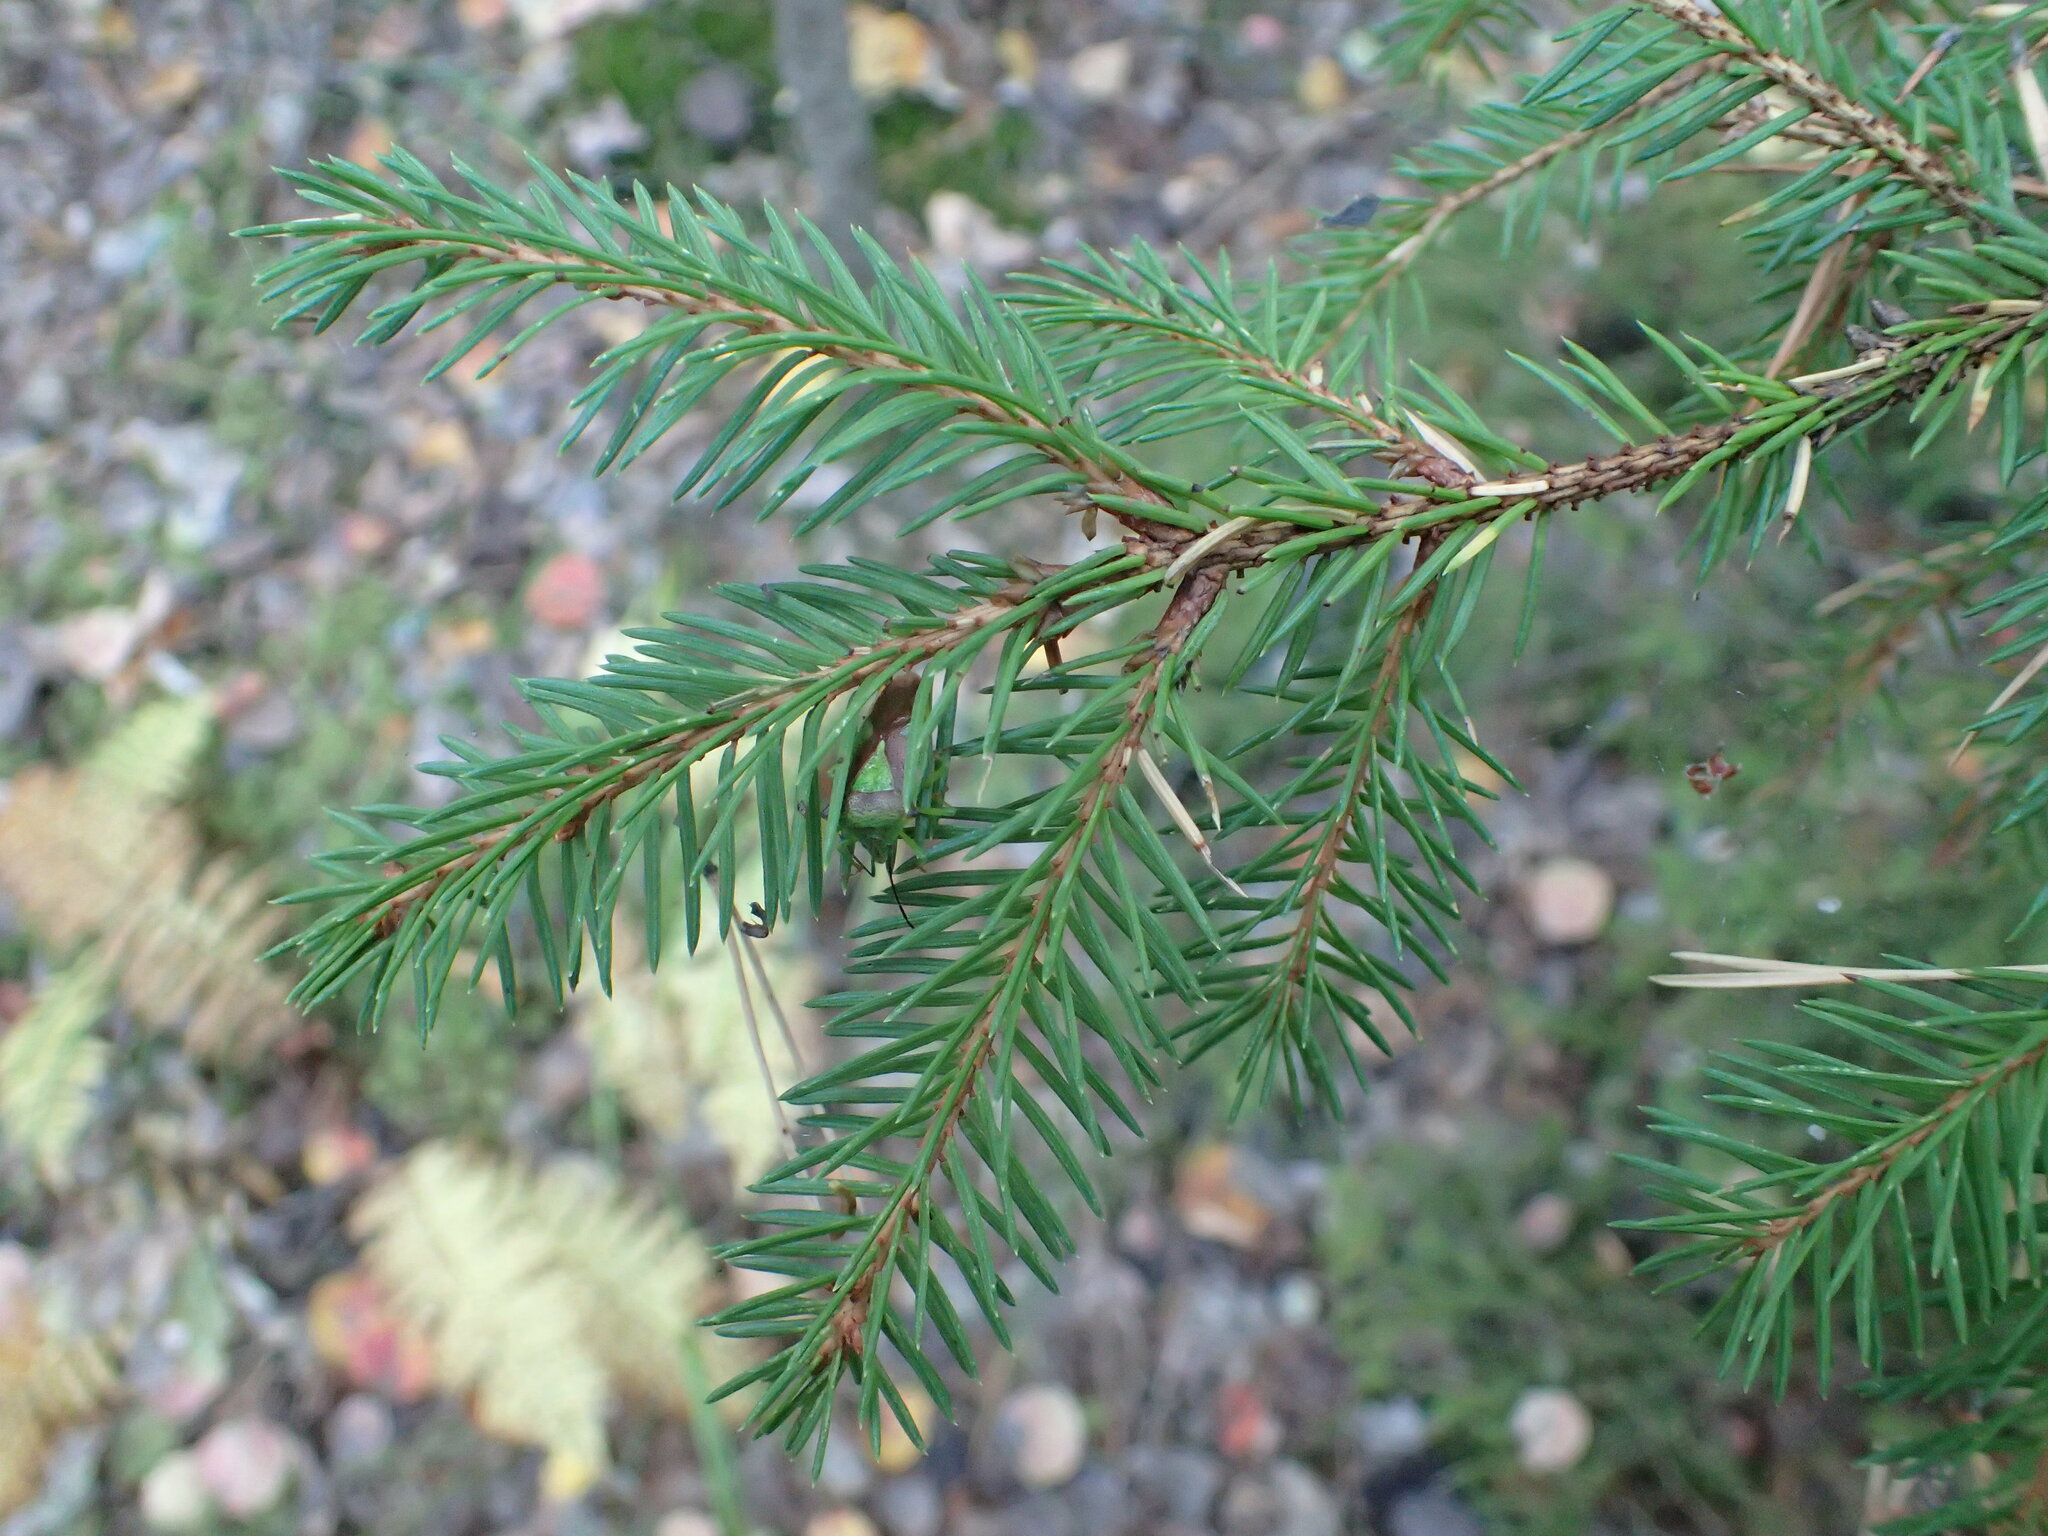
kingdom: Plantae
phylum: Tracheophyta
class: Pinopsida
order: Pinales
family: Pinaceae
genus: Picea
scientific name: Picea abies
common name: Norway spruce
